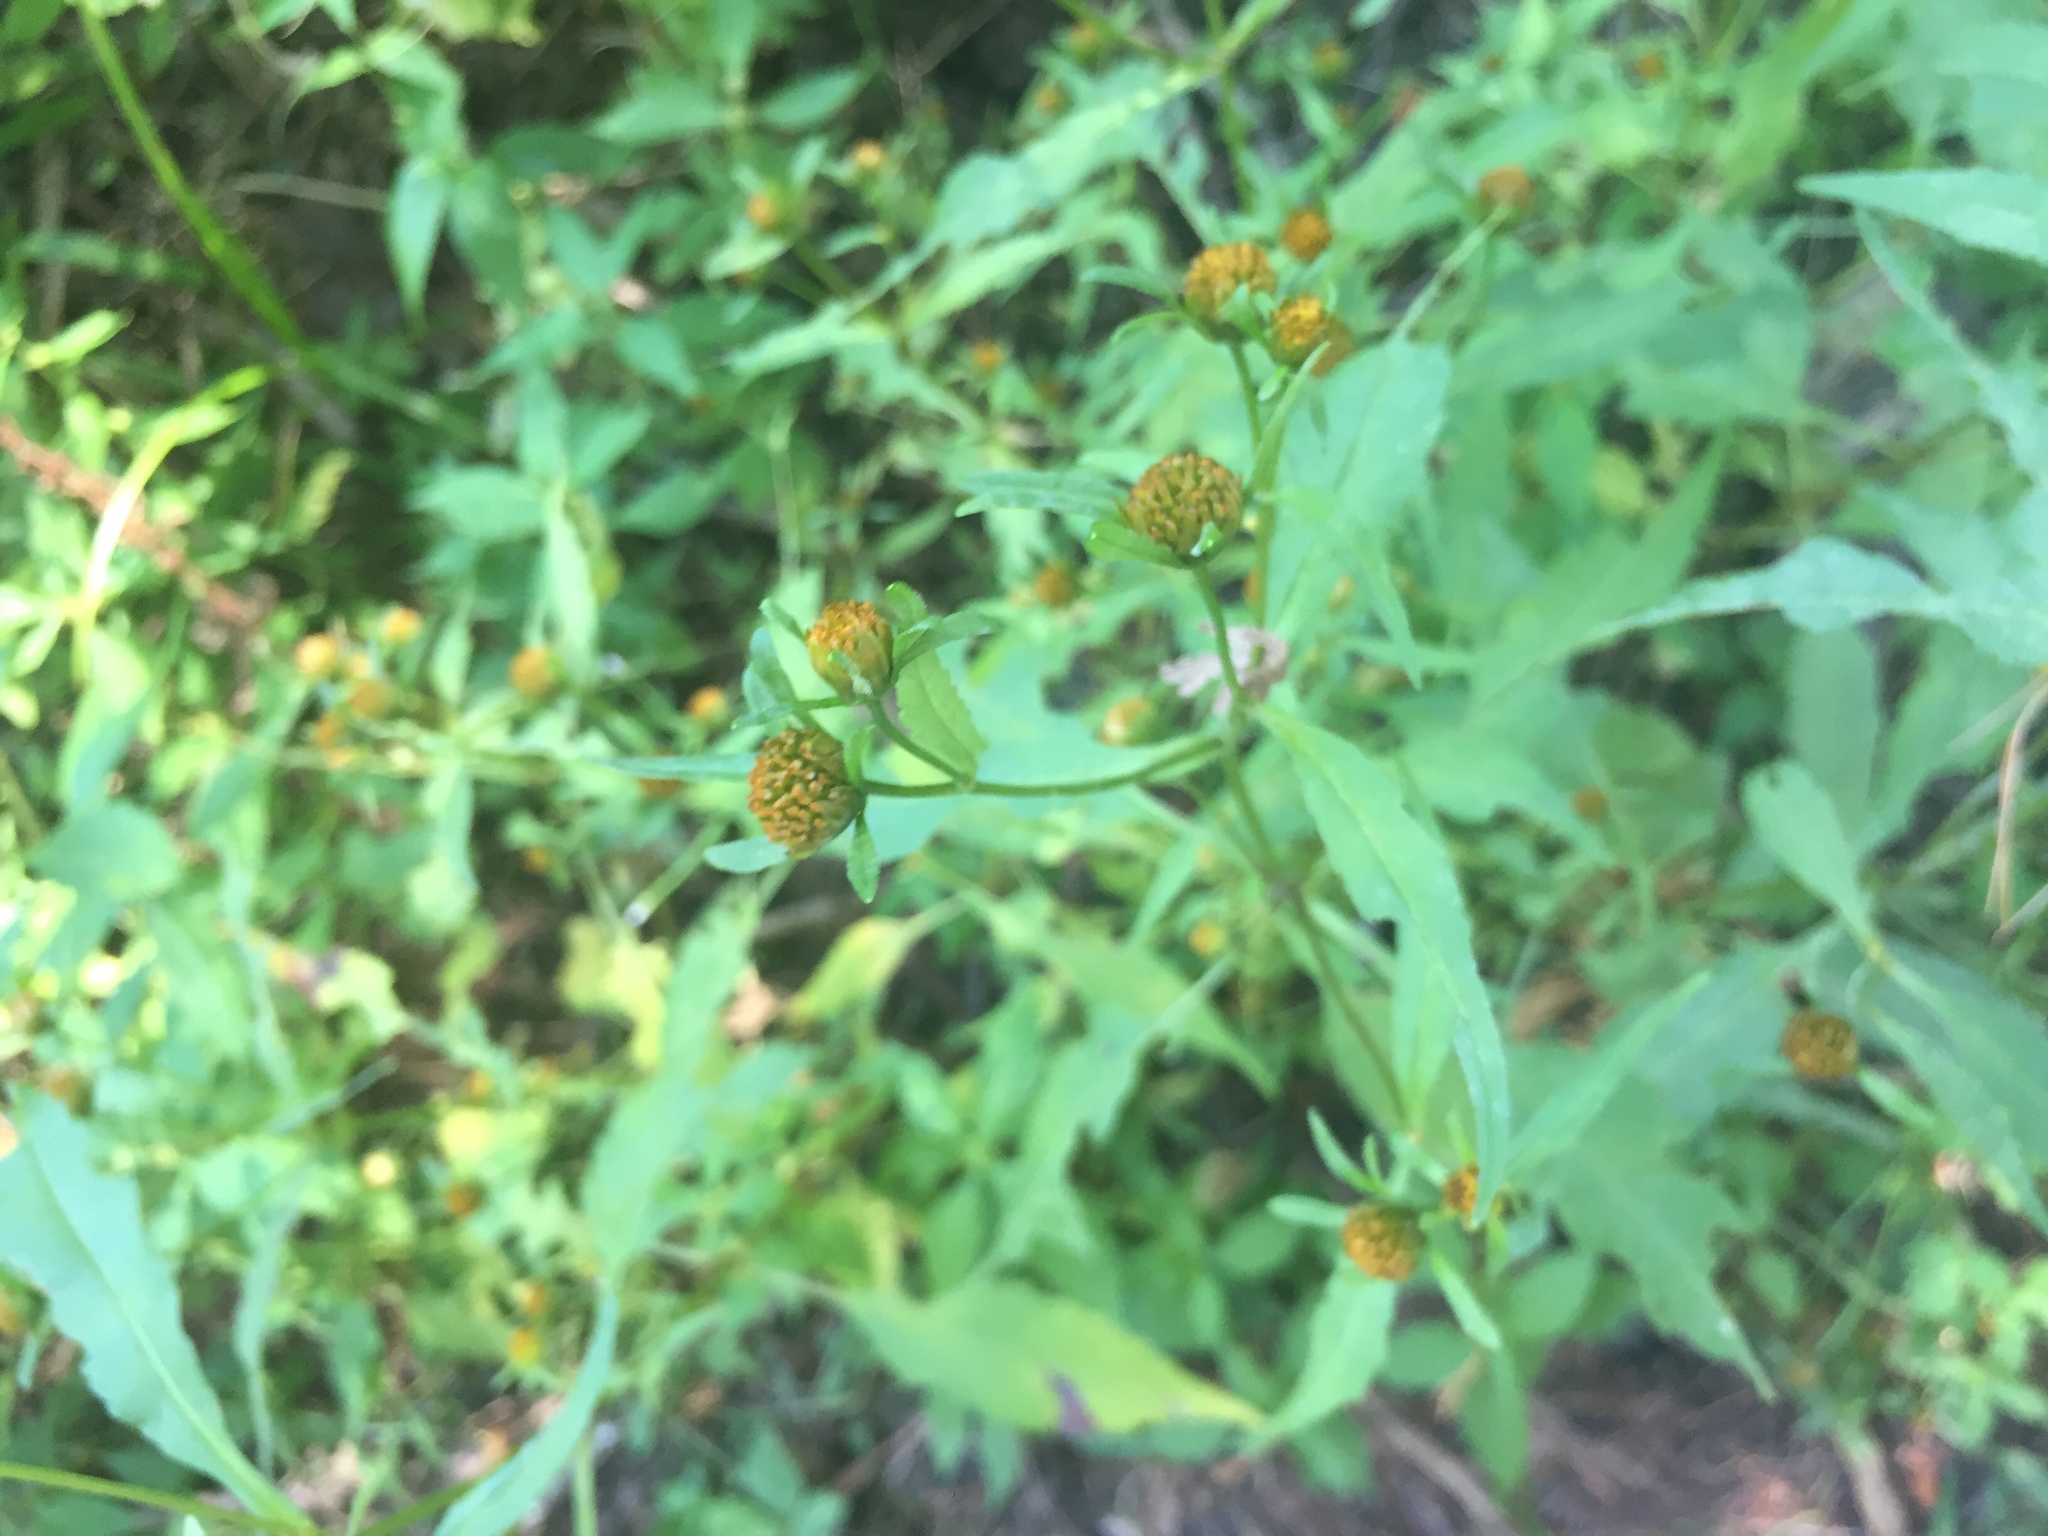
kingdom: Plantae
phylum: Tracheophyta
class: Magnoliopsida
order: Asterales
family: Asteraceae
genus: Bidens
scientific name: Bidens frondosa
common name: Beggarticks
